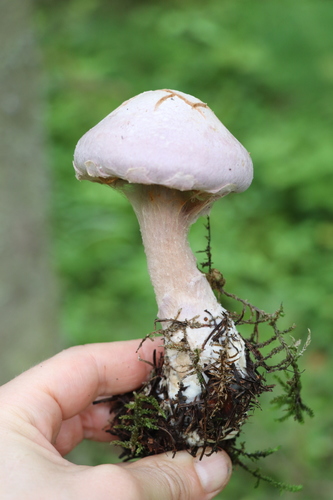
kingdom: Fungi
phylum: Basidiomycota
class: Agaricomycetes
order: Agaricales
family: Cortinariaceae
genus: Cortinarius
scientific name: Cortinarius camphoratus
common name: Goatcheese webcap
